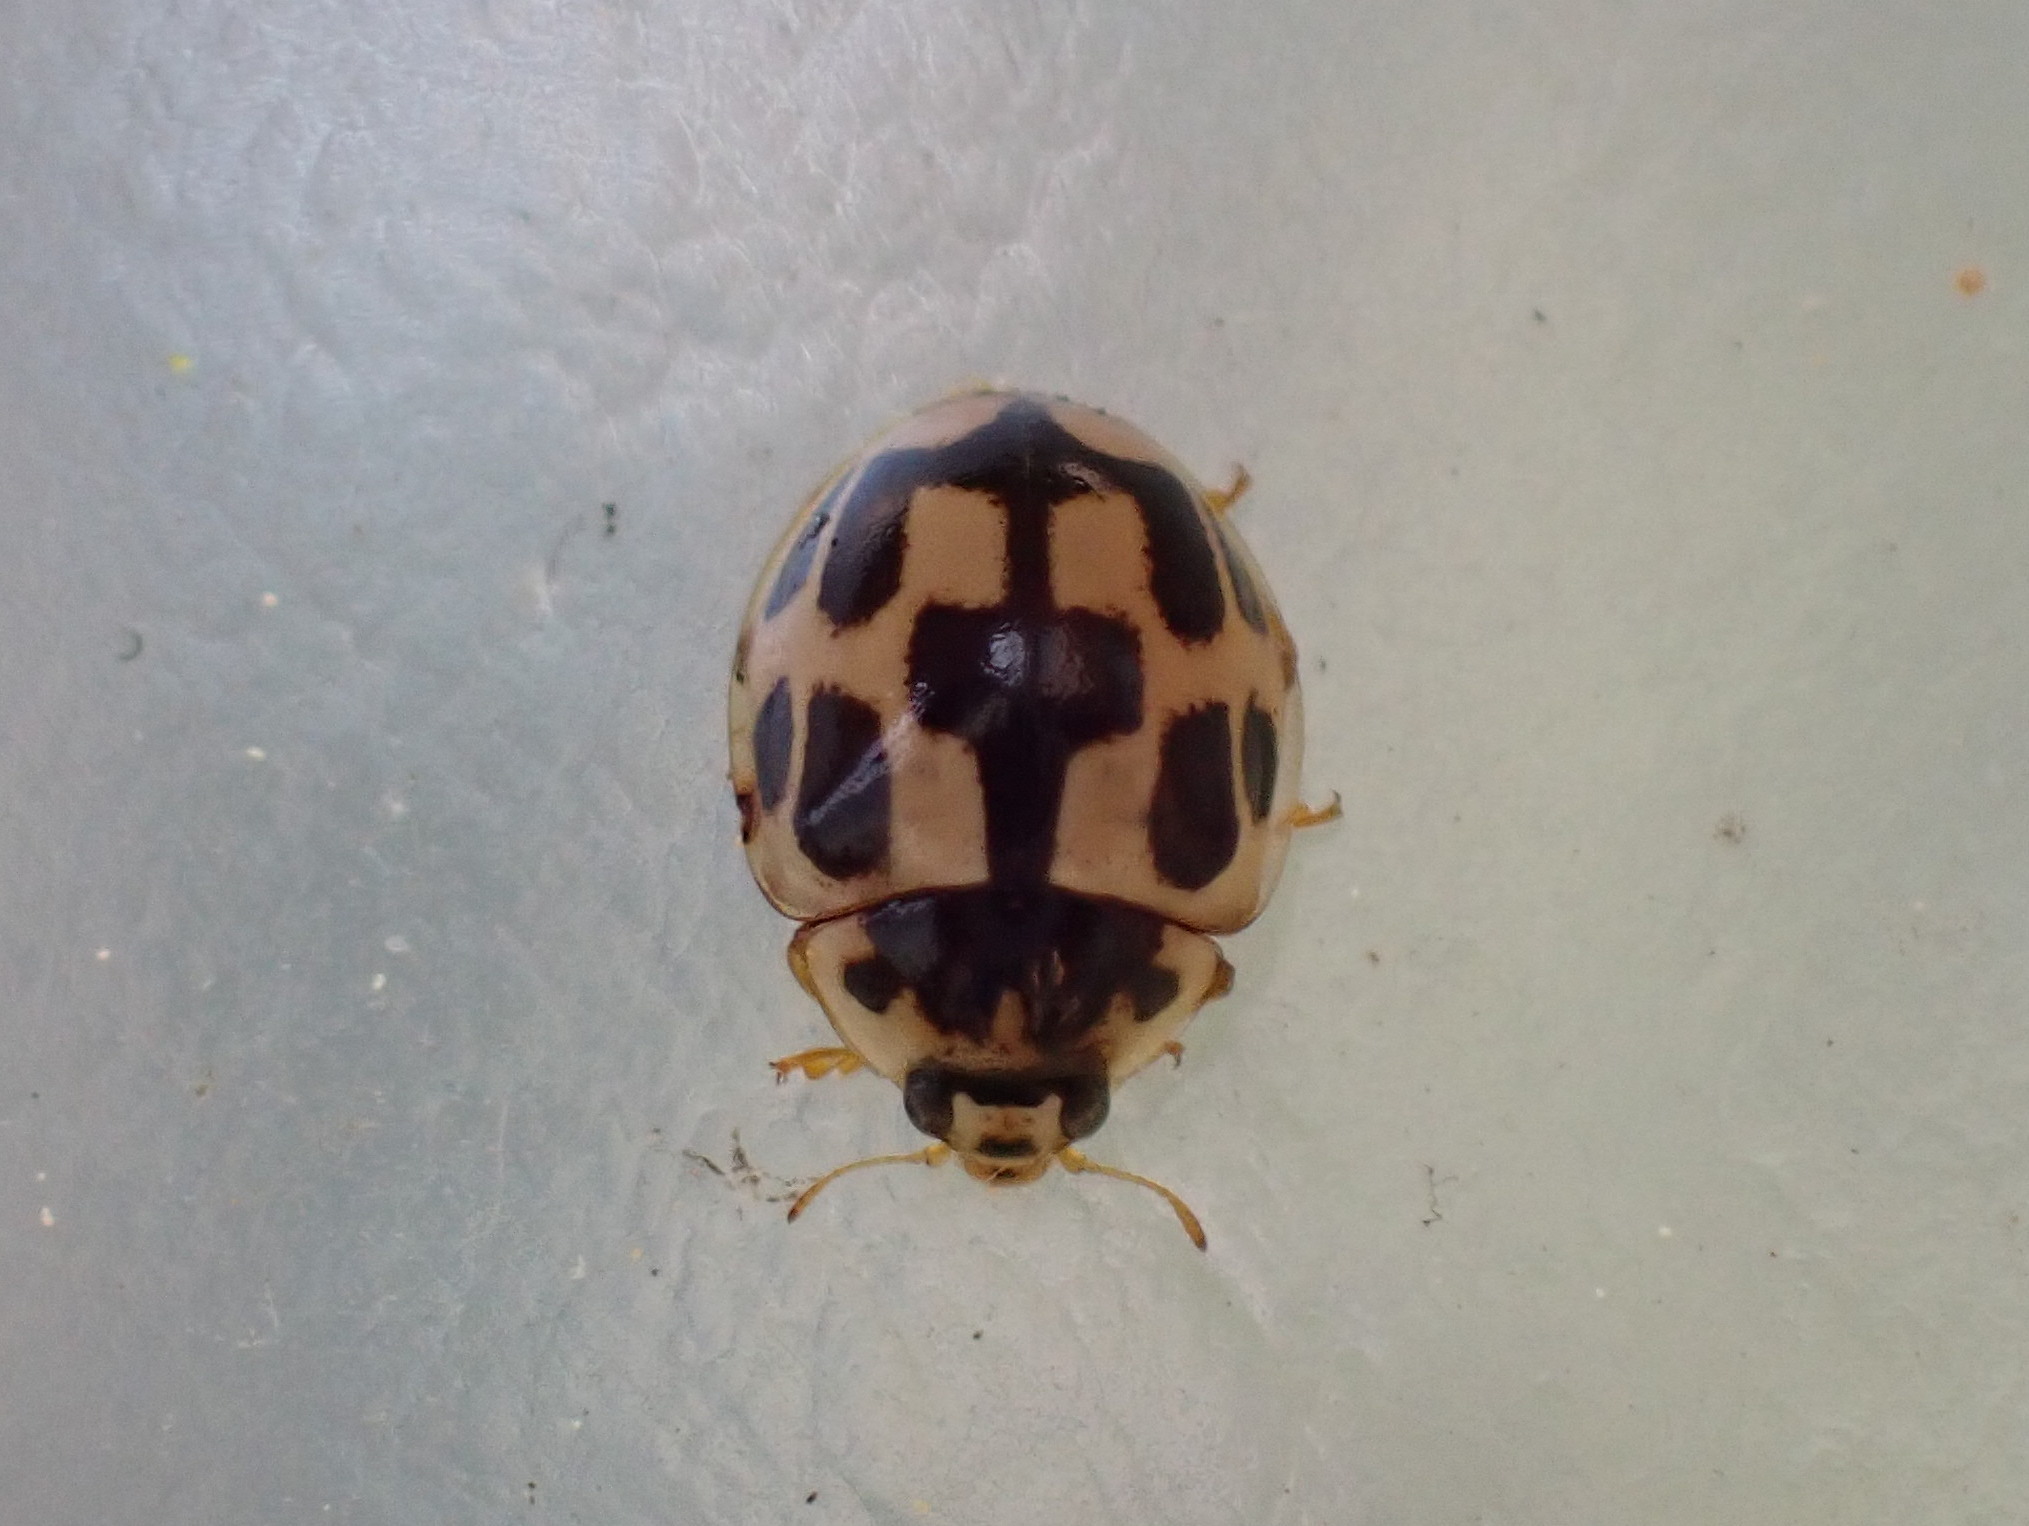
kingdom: Animalia
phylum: Arthropoda
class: Insecta
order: Coleoptera
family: Coccinellidae
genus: Propylaea
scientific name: Propylaea quatuordecimpunctata
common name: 14-spotted ladybird beetle
